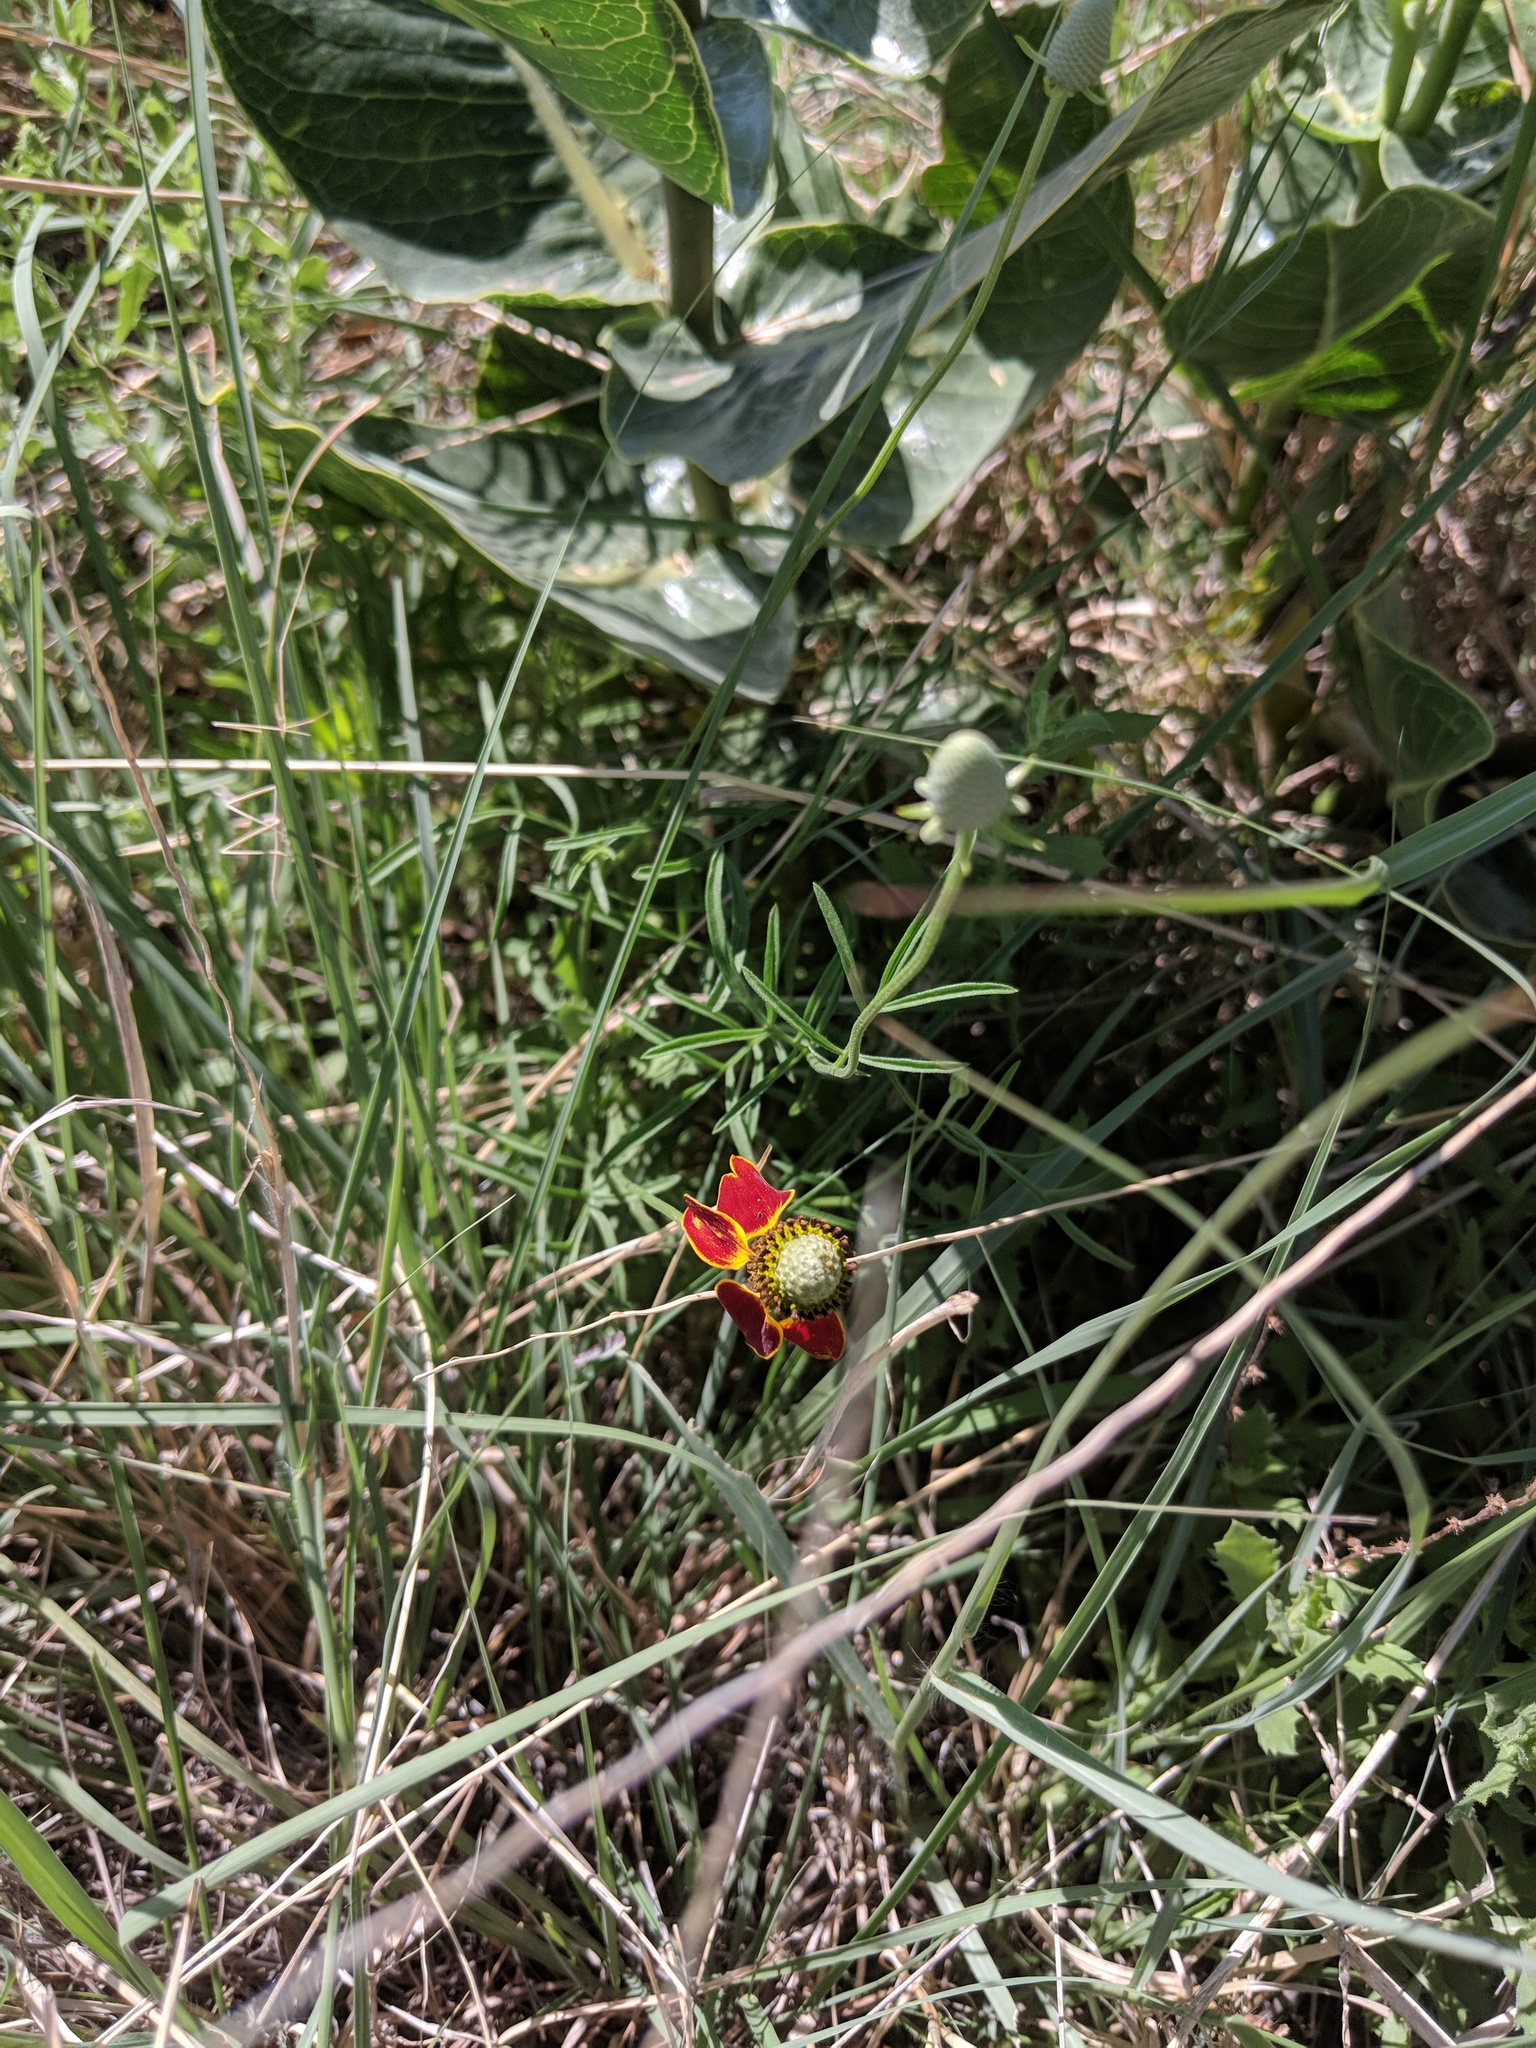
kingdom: Plantae
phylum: Tracheophyta
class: Magnoliopsida
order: Asterales
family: Asteraceae
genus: Ratibida
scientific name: Ratibida columnifera
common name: Prairie coneflower
